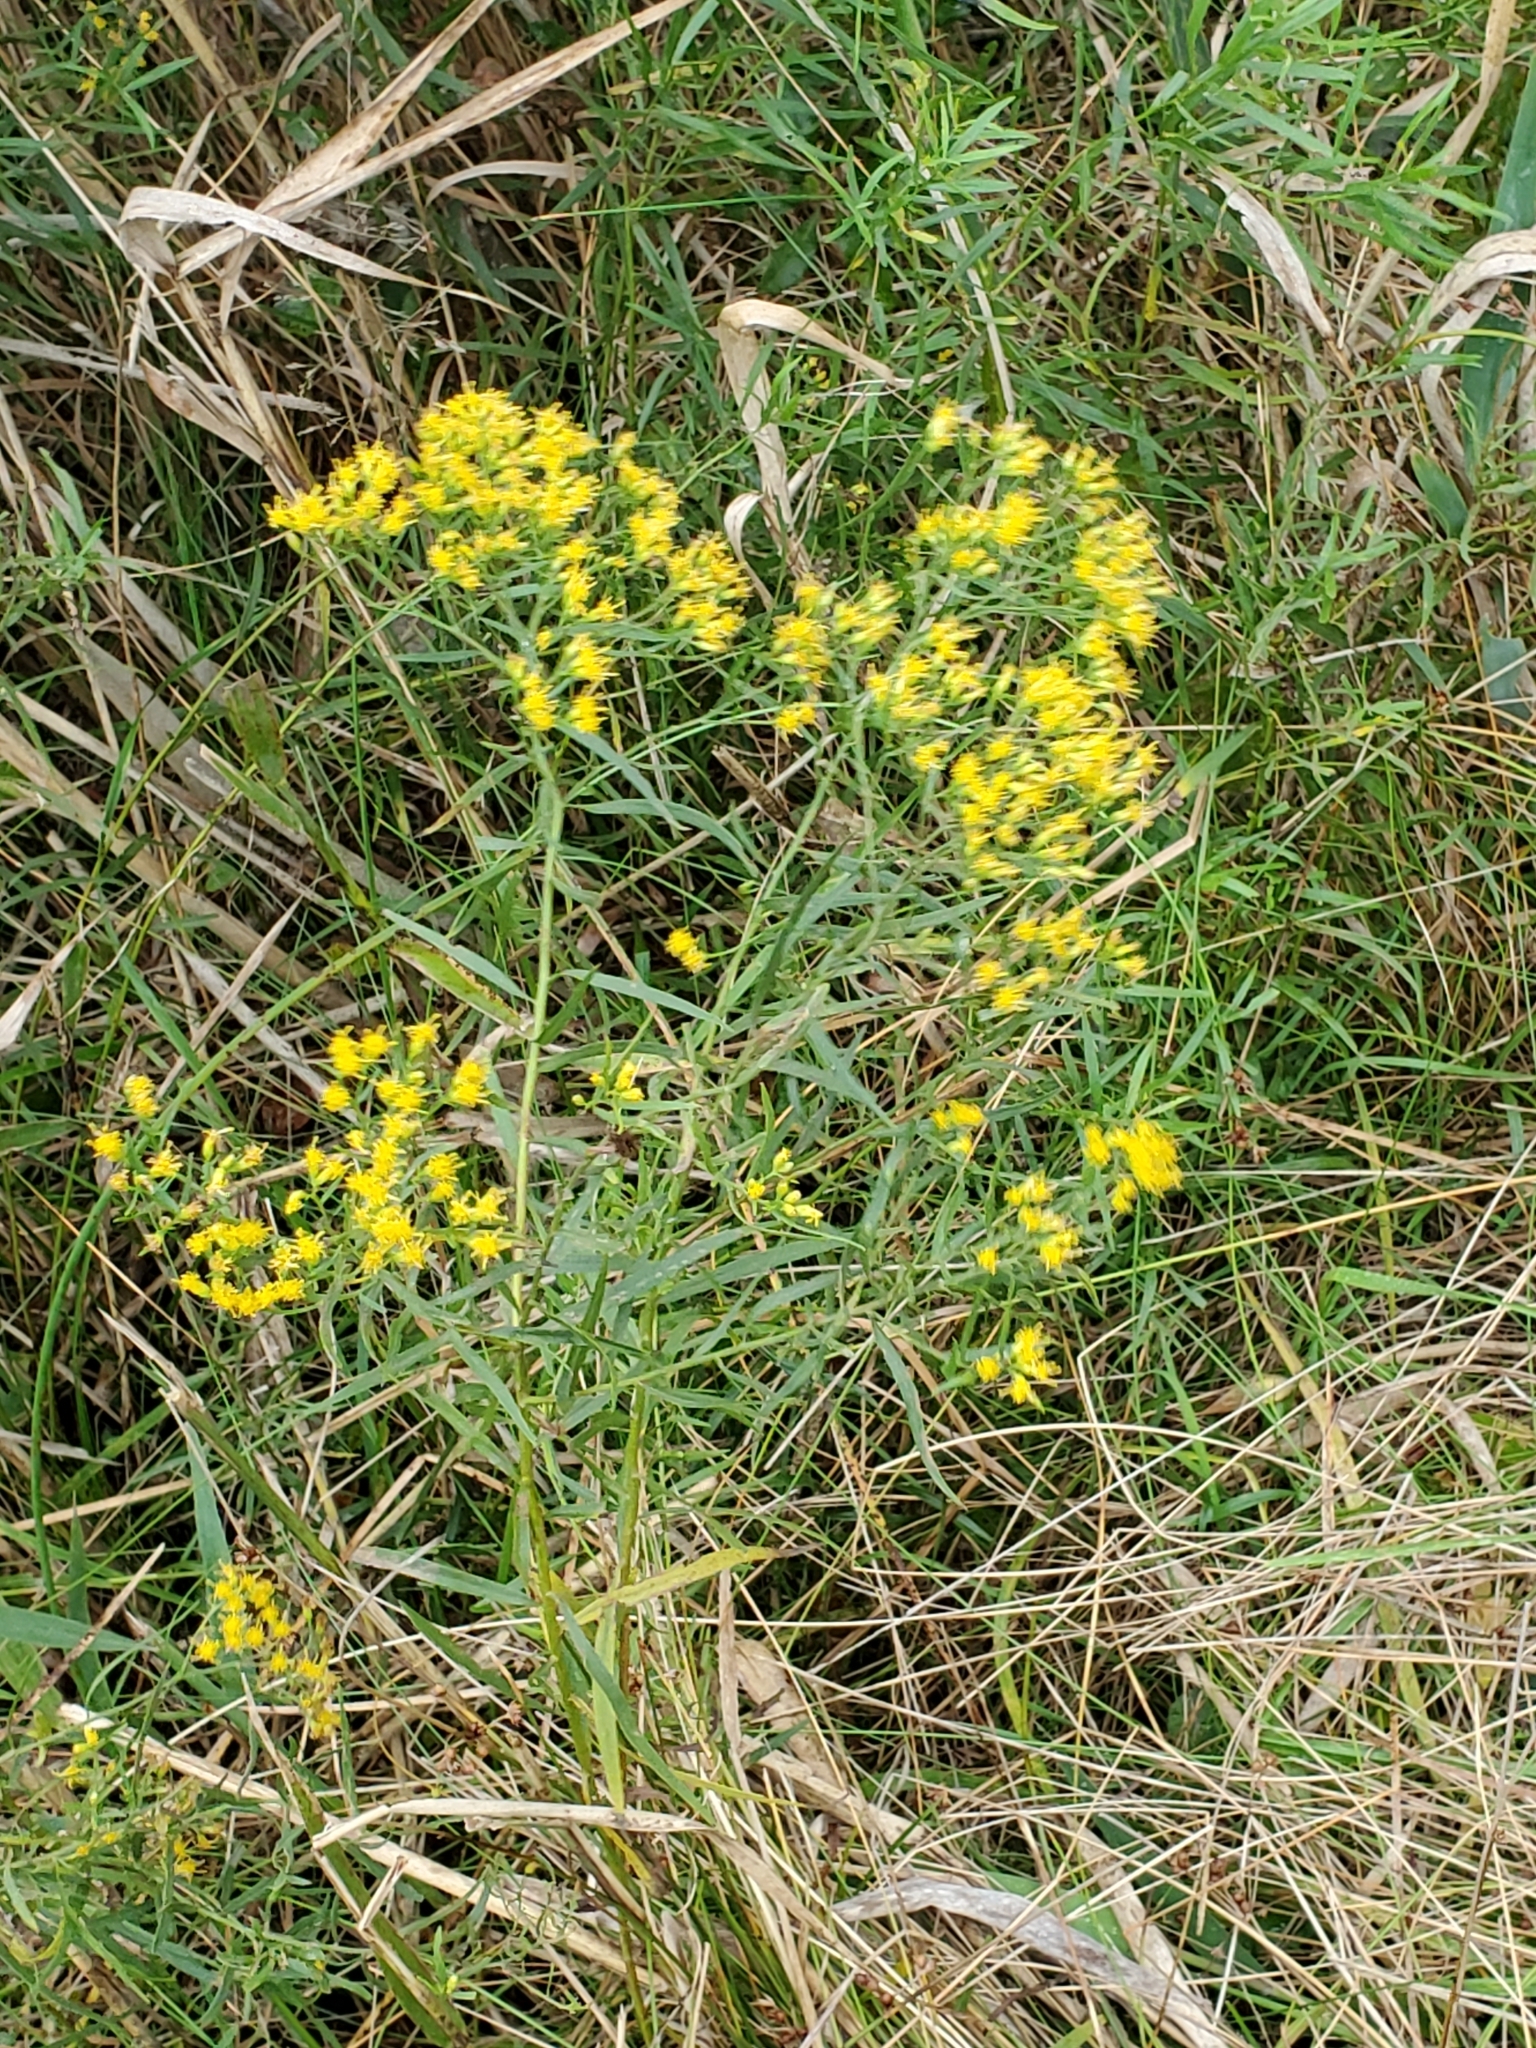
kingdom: Plantae
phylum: Tracheophyta
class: Magnoliopsida
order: Asterales
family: Asteraceae
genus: Euthamia
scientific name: Euthamia graminifolia
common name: Common goldentop
